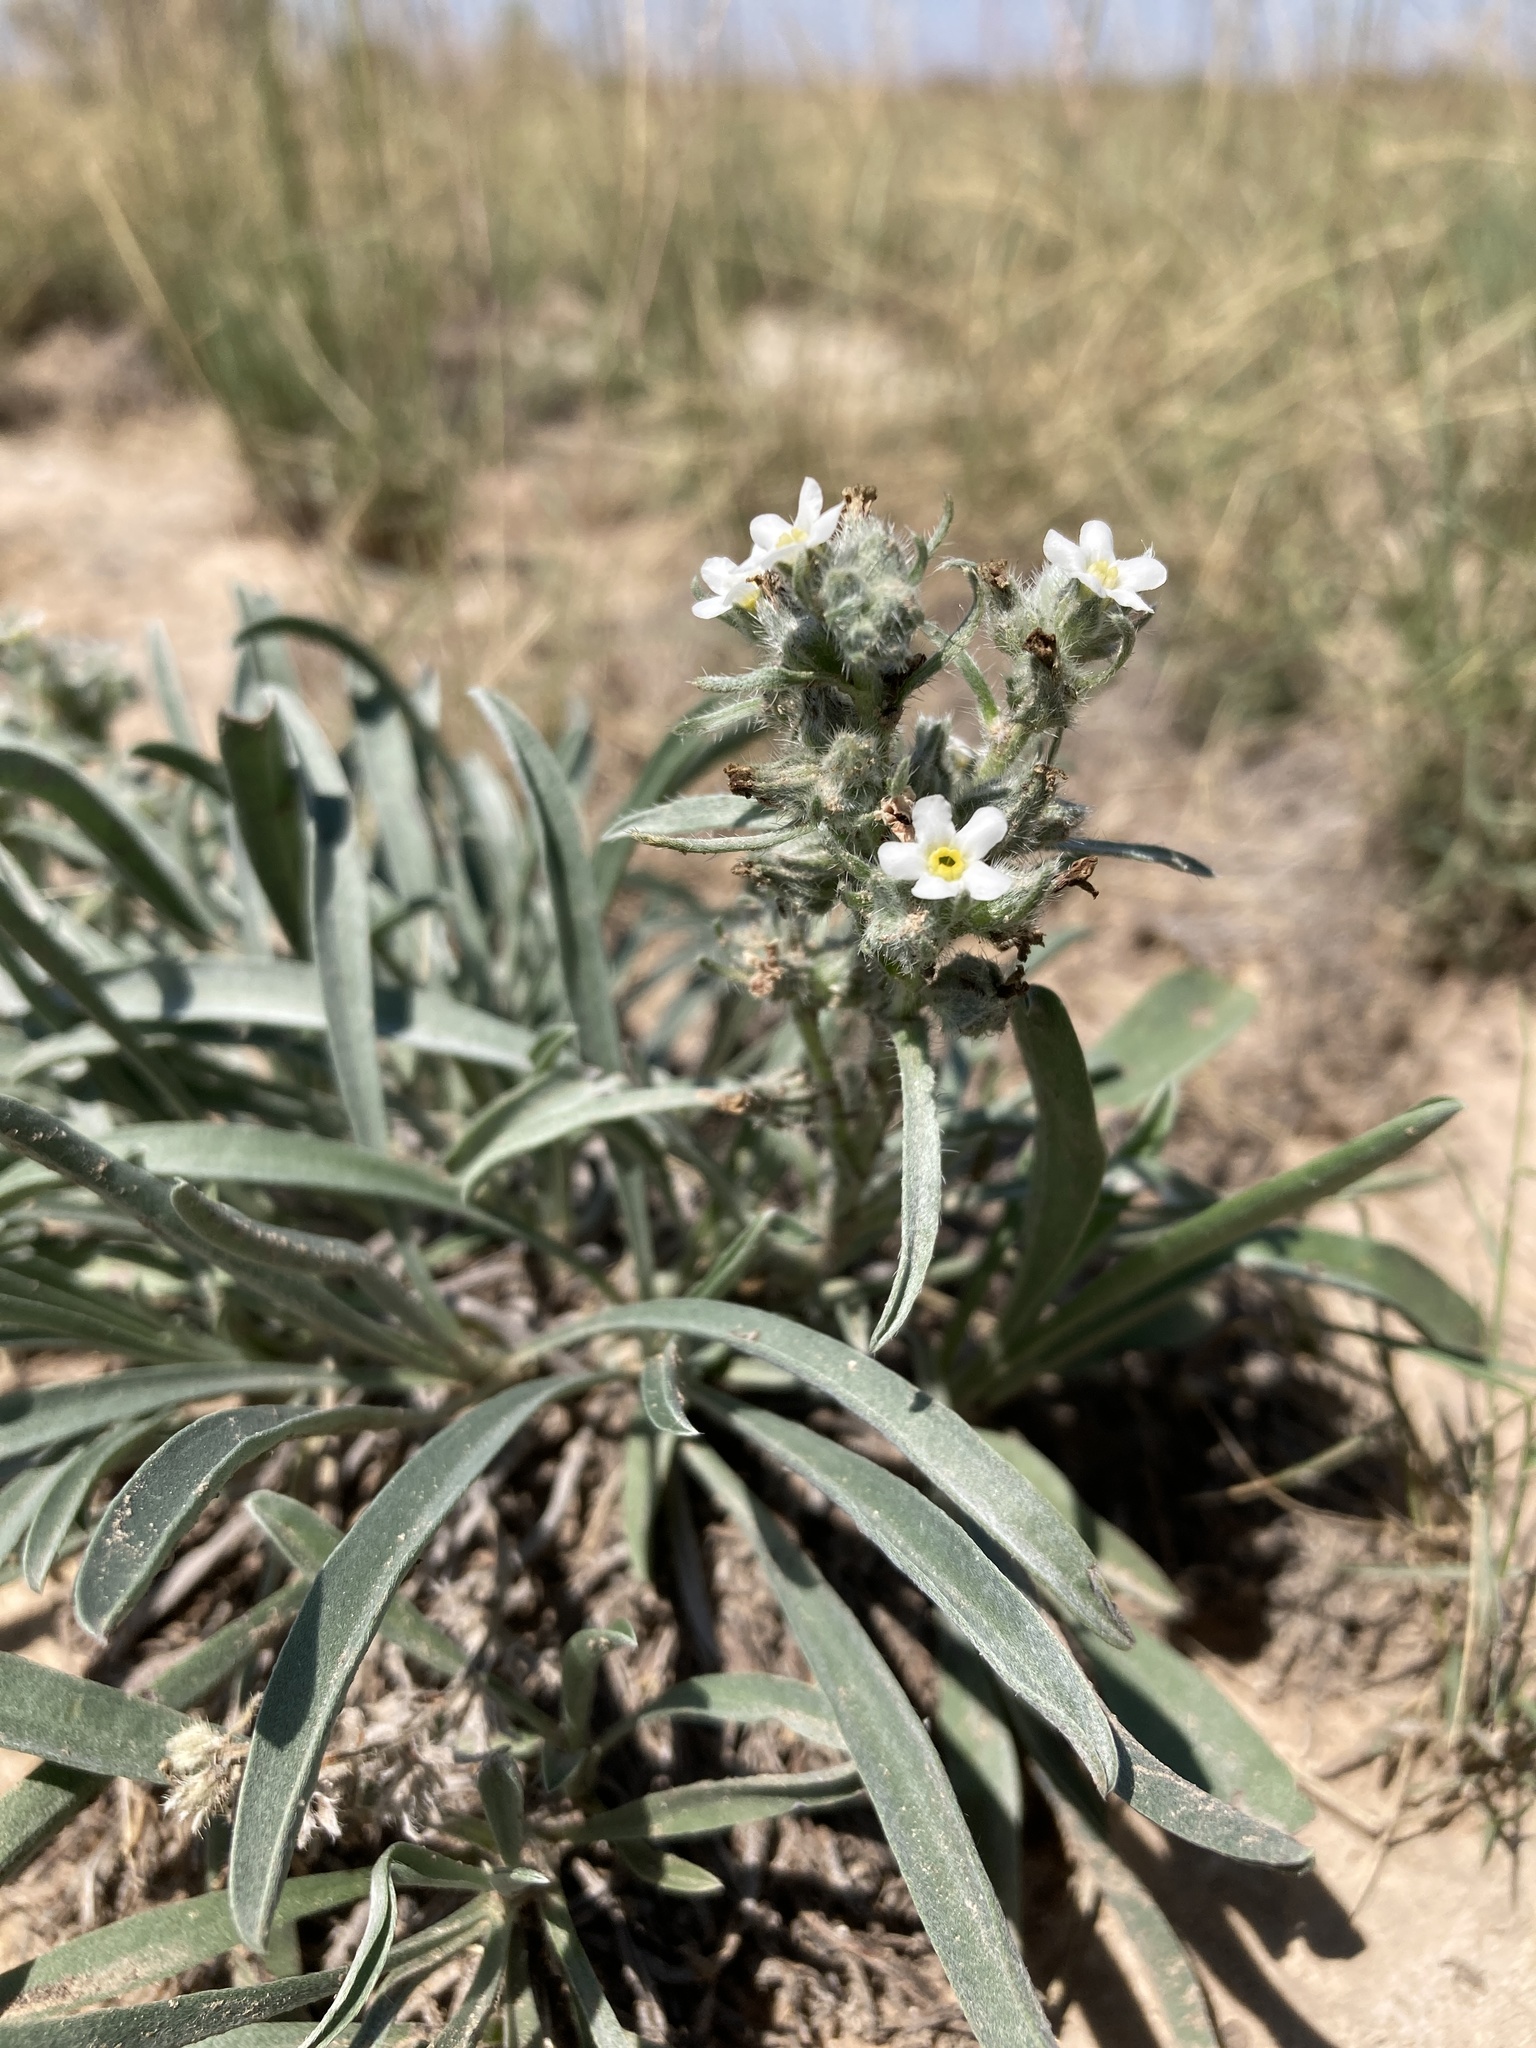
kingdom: Plantae
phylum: Tracheophyta
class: Magnoliopsida
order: Boraginales
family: Boraginaceae
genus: Oreocarya
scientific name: Oreocarya suffruticosa
